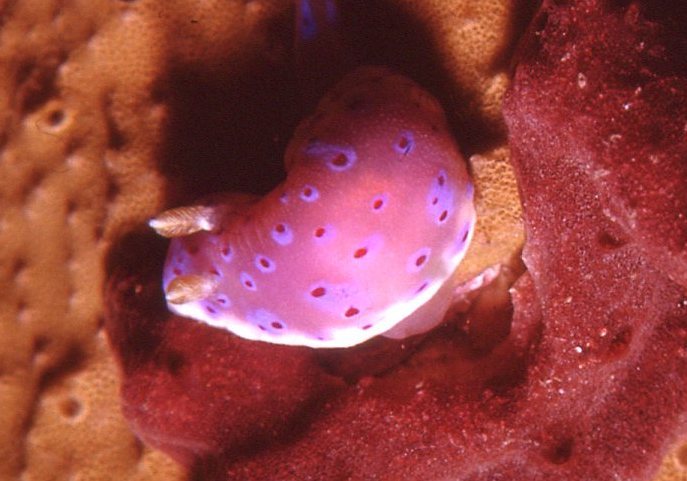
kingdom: Animalia
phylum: Mollusca
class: Gastropoda
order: Nudibranchia
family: Chromodorididae
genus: Goniobranchus
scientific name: Goniobranchus thompsoni
